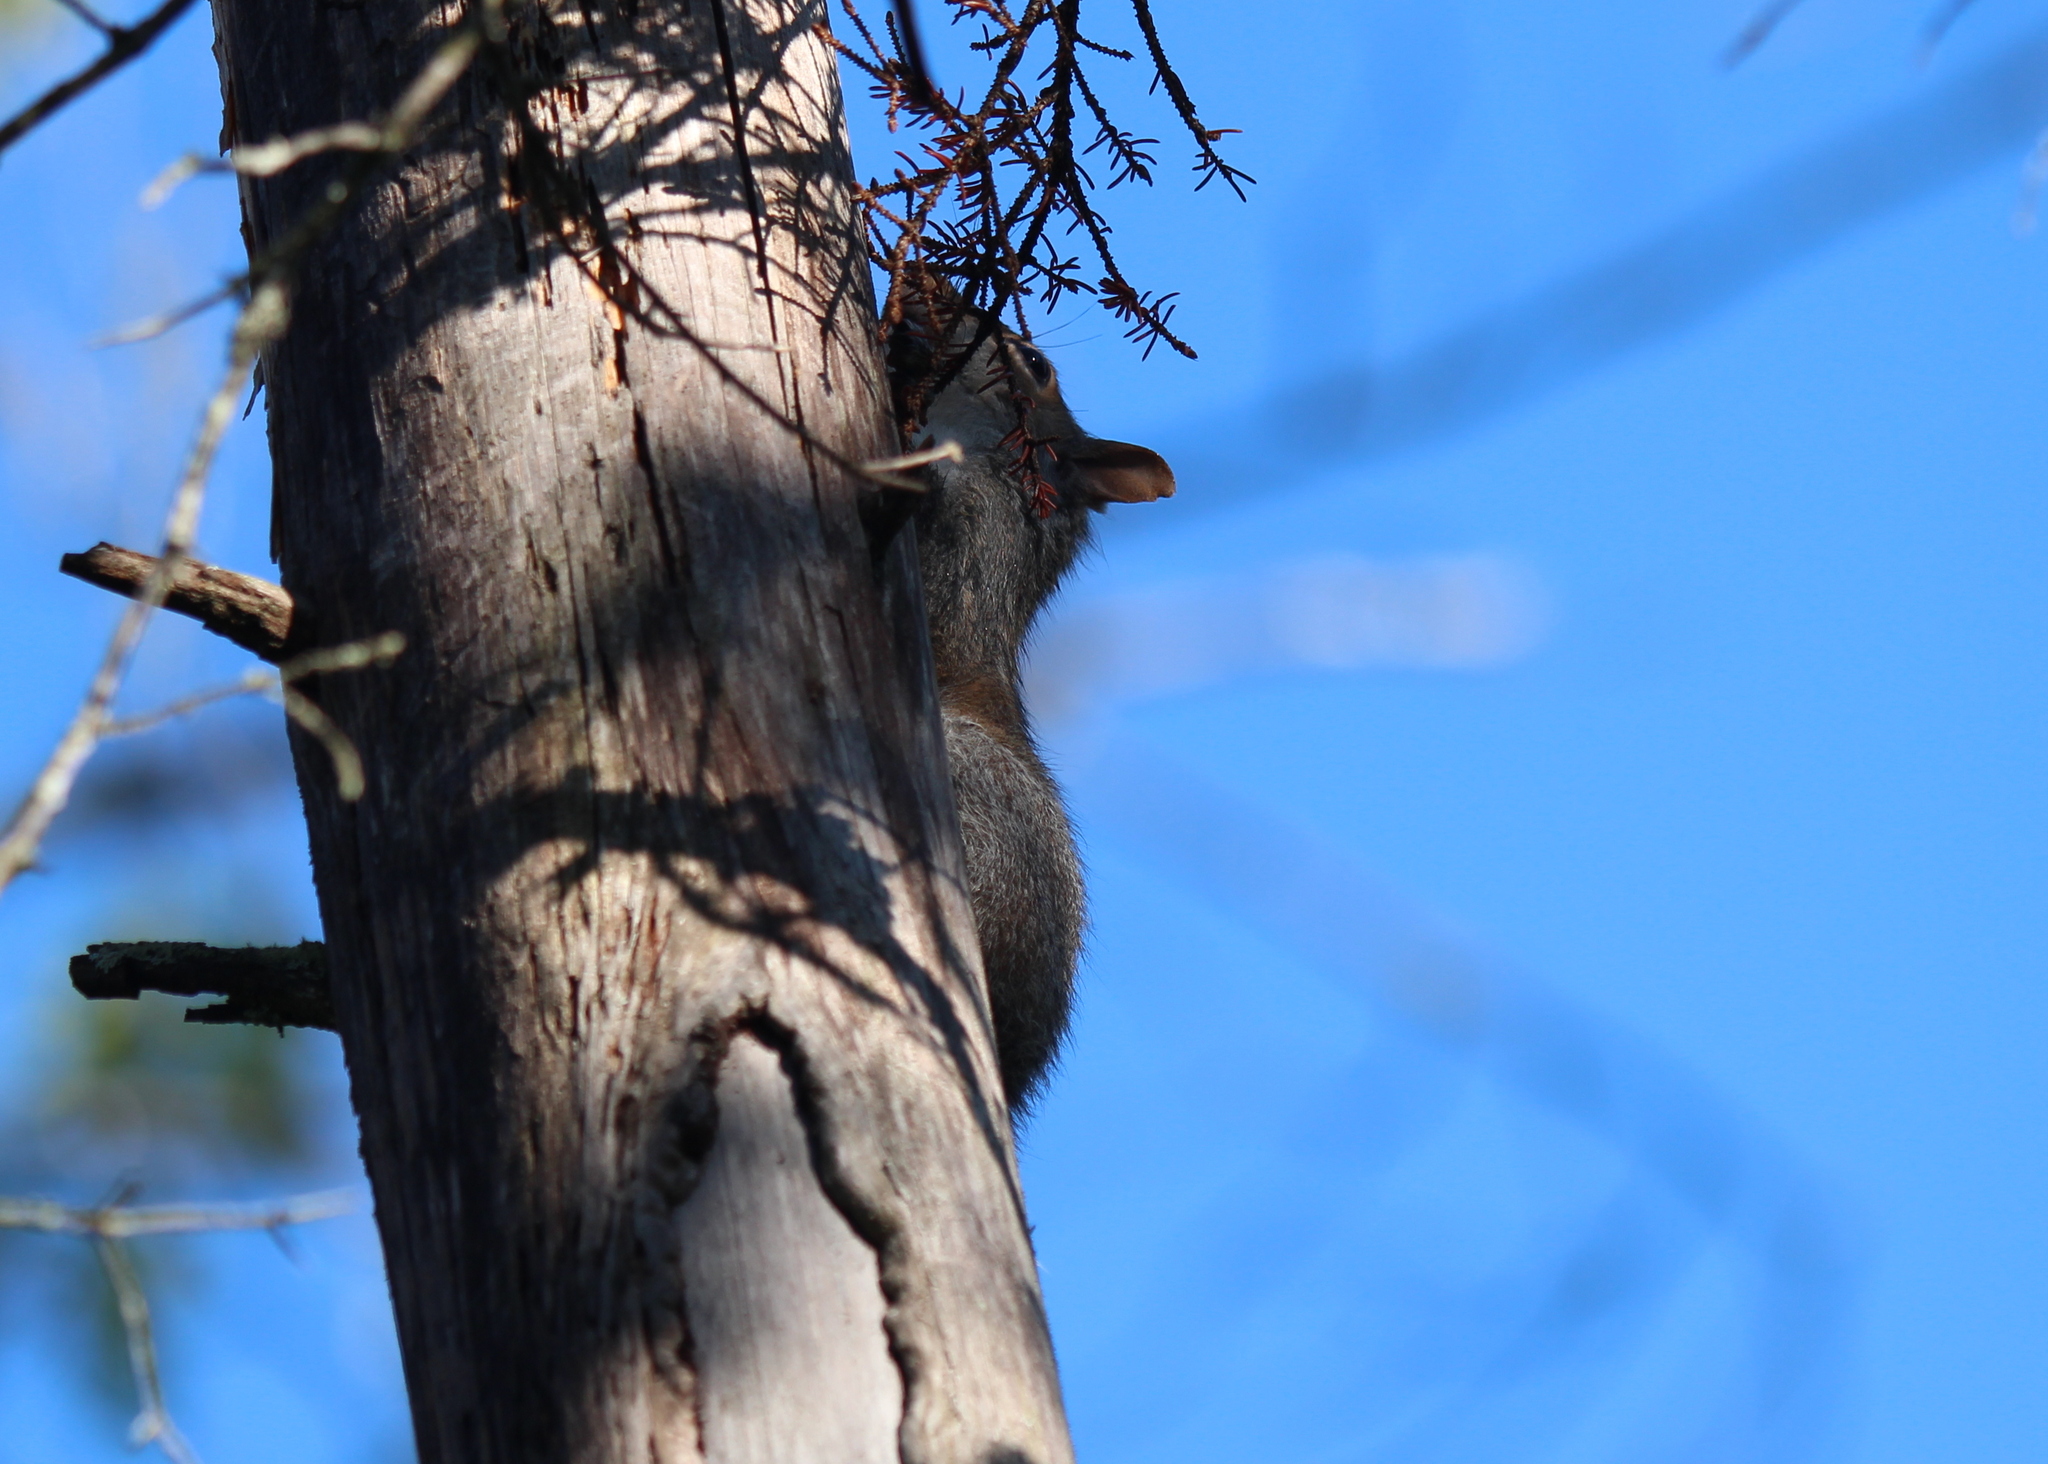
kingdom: Animalia
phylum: Chordata
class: Mammalia
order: Rodentia
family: Sciuridae
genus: Sciurus
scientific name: Sciurus carolinensis
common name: Eastern gray squirrel
